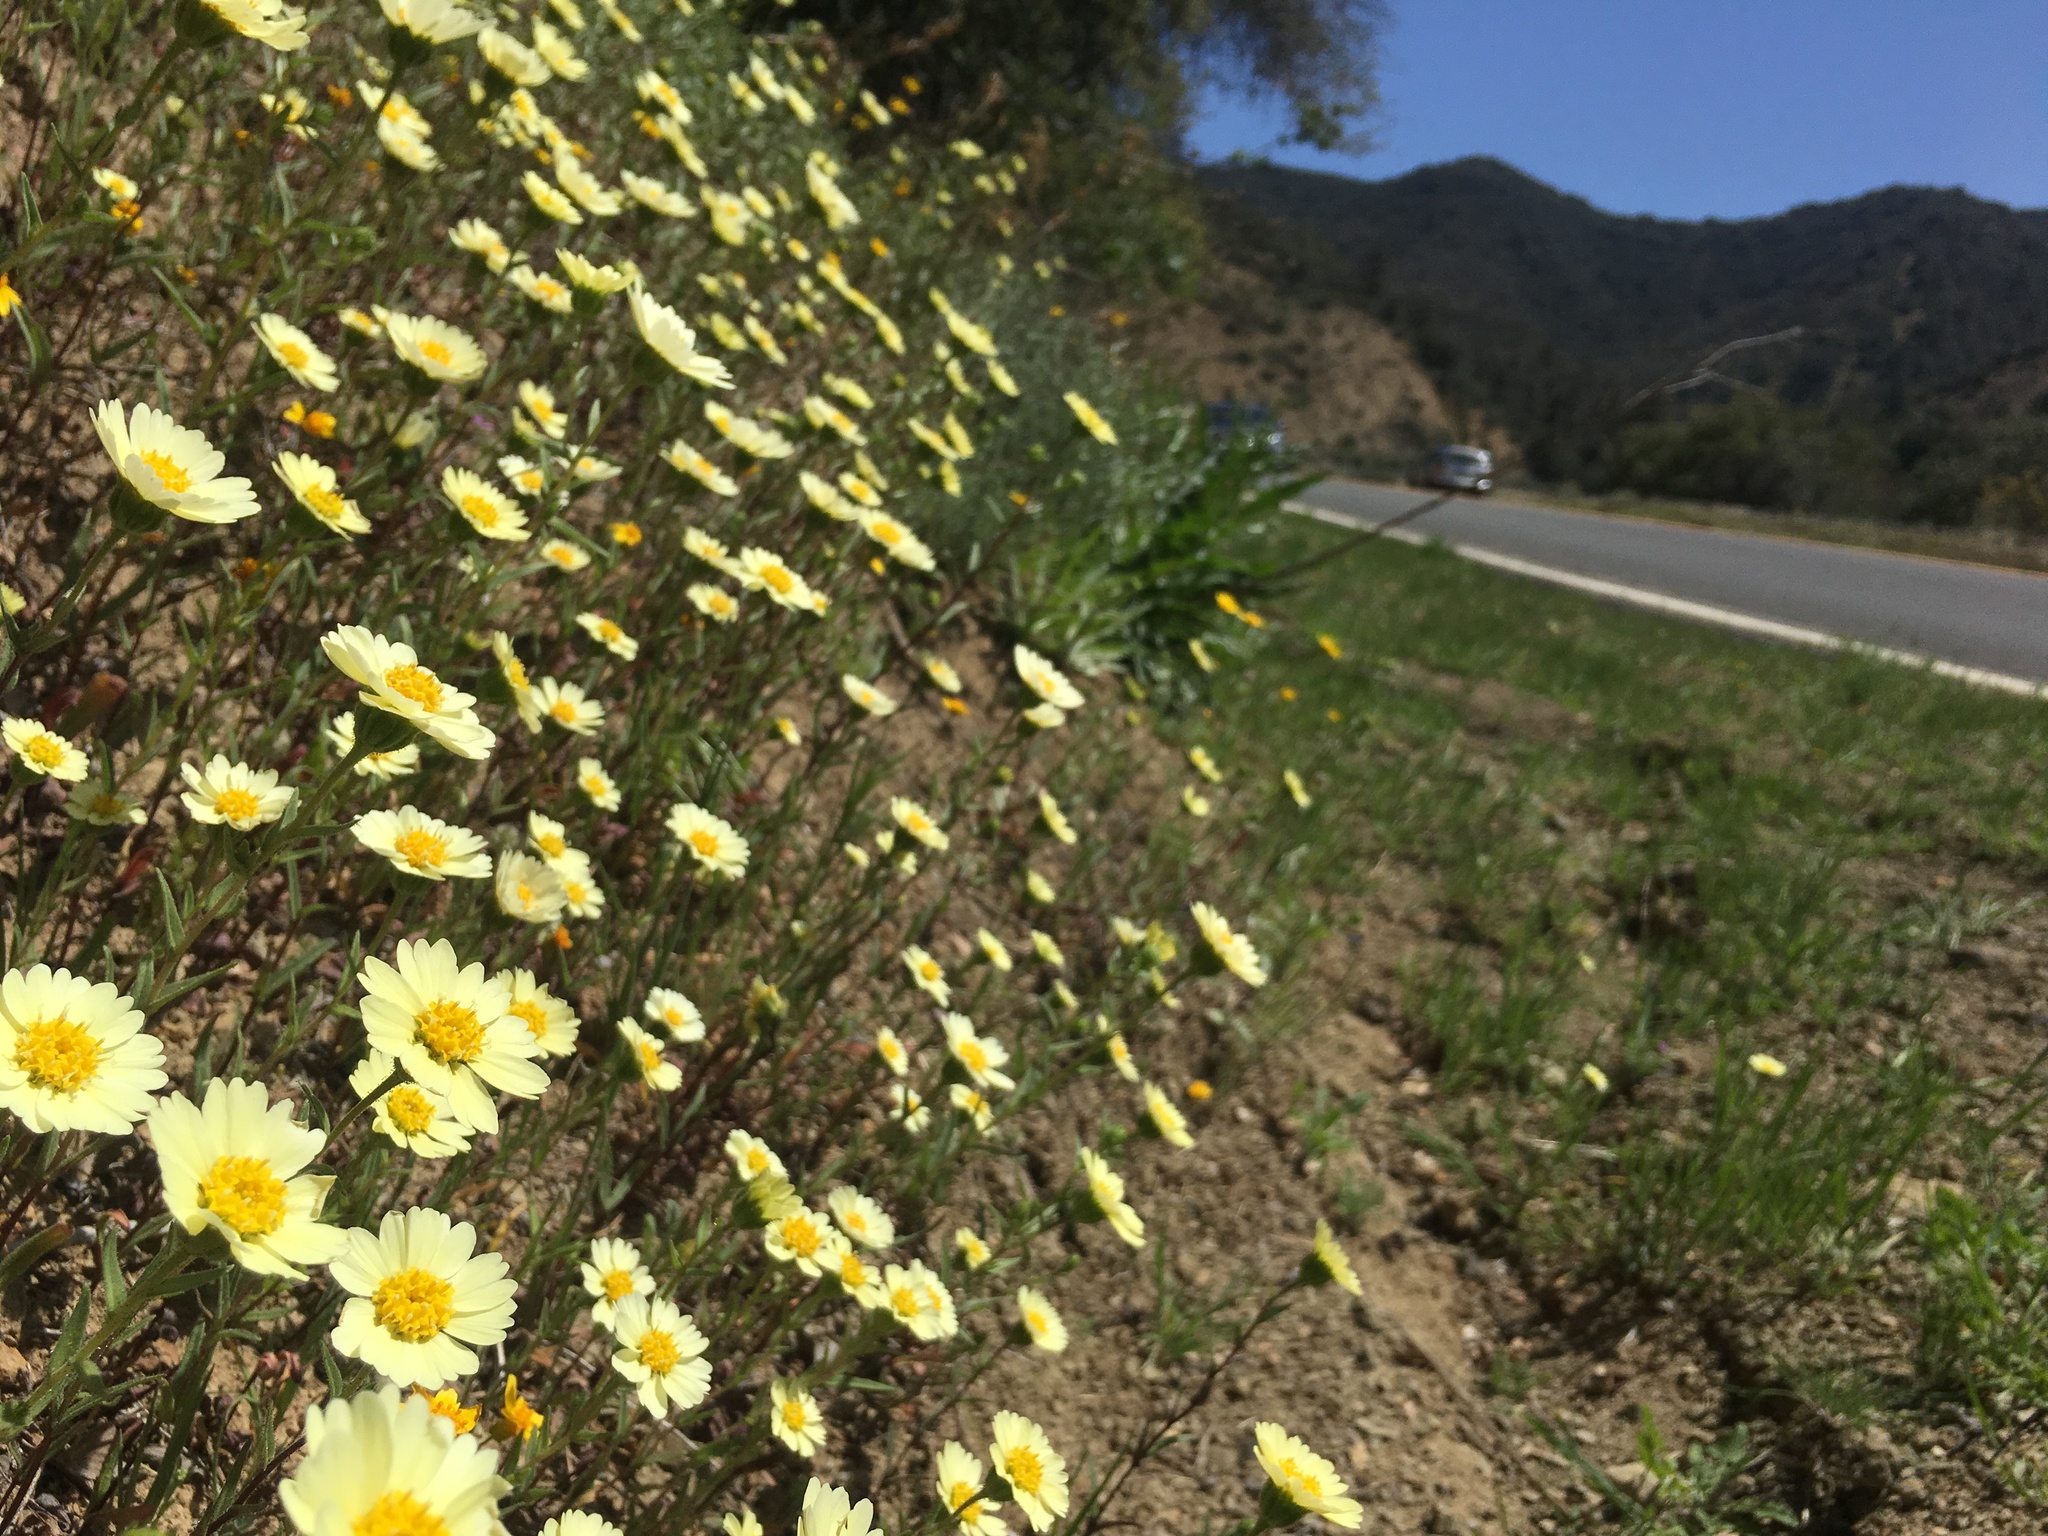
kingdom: Plantae
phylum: Tracheophyta
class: Magnoliopsida
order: Asterales
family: Asteraceae
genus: Layia
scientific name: Layia heterotricha
